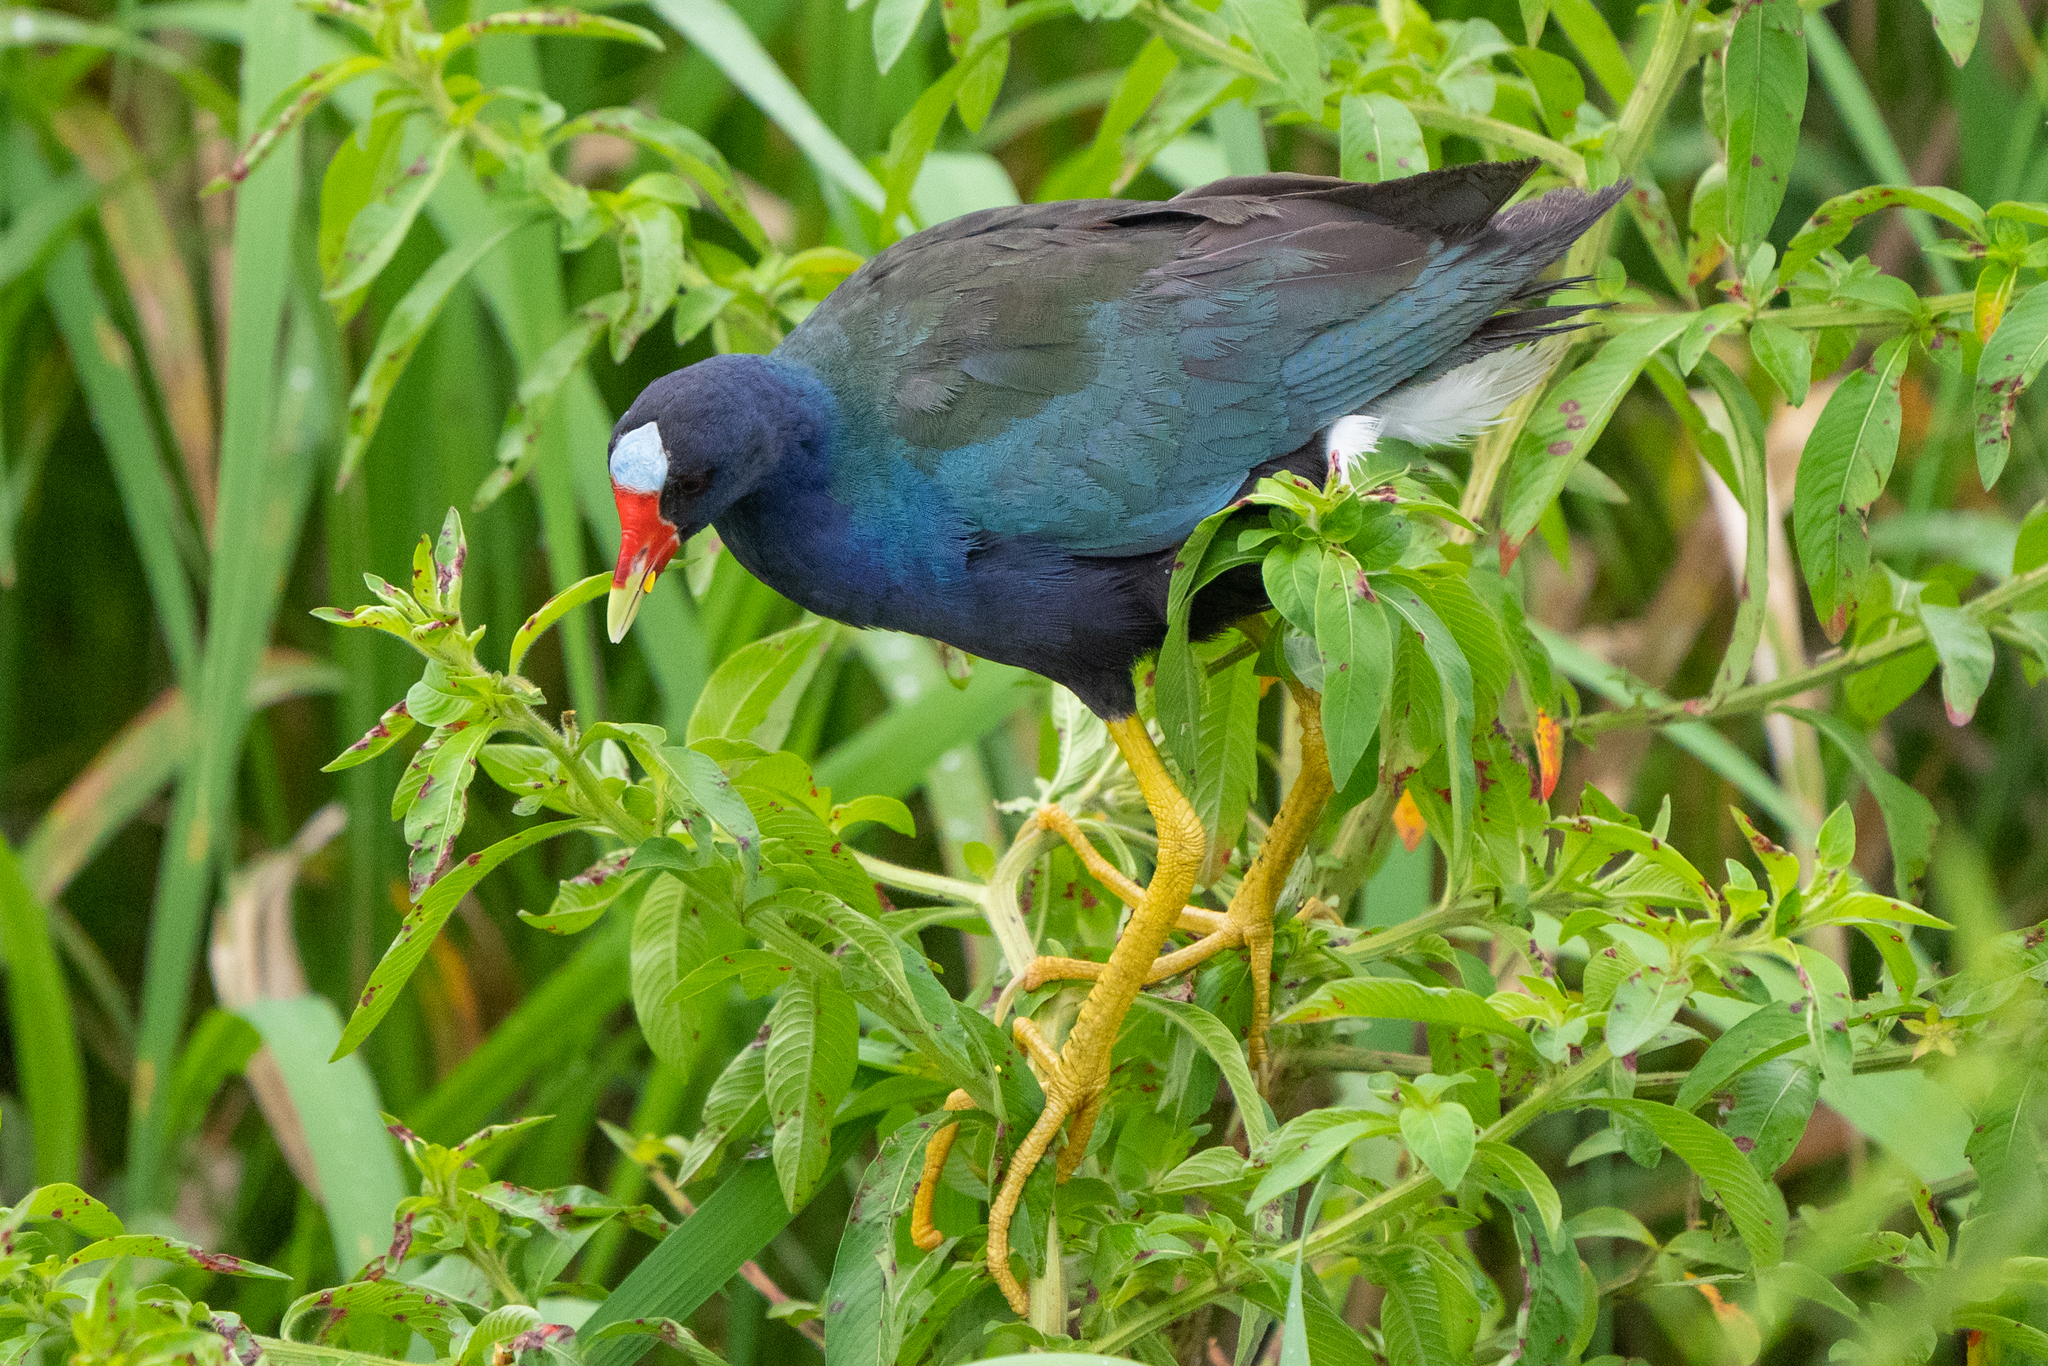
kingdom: Animalia
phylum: Chordata
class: Aves
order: Gruiformes
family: Rallidae
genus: Porphyrio
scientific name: Porphyrio martinica
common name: Purple gallinule
